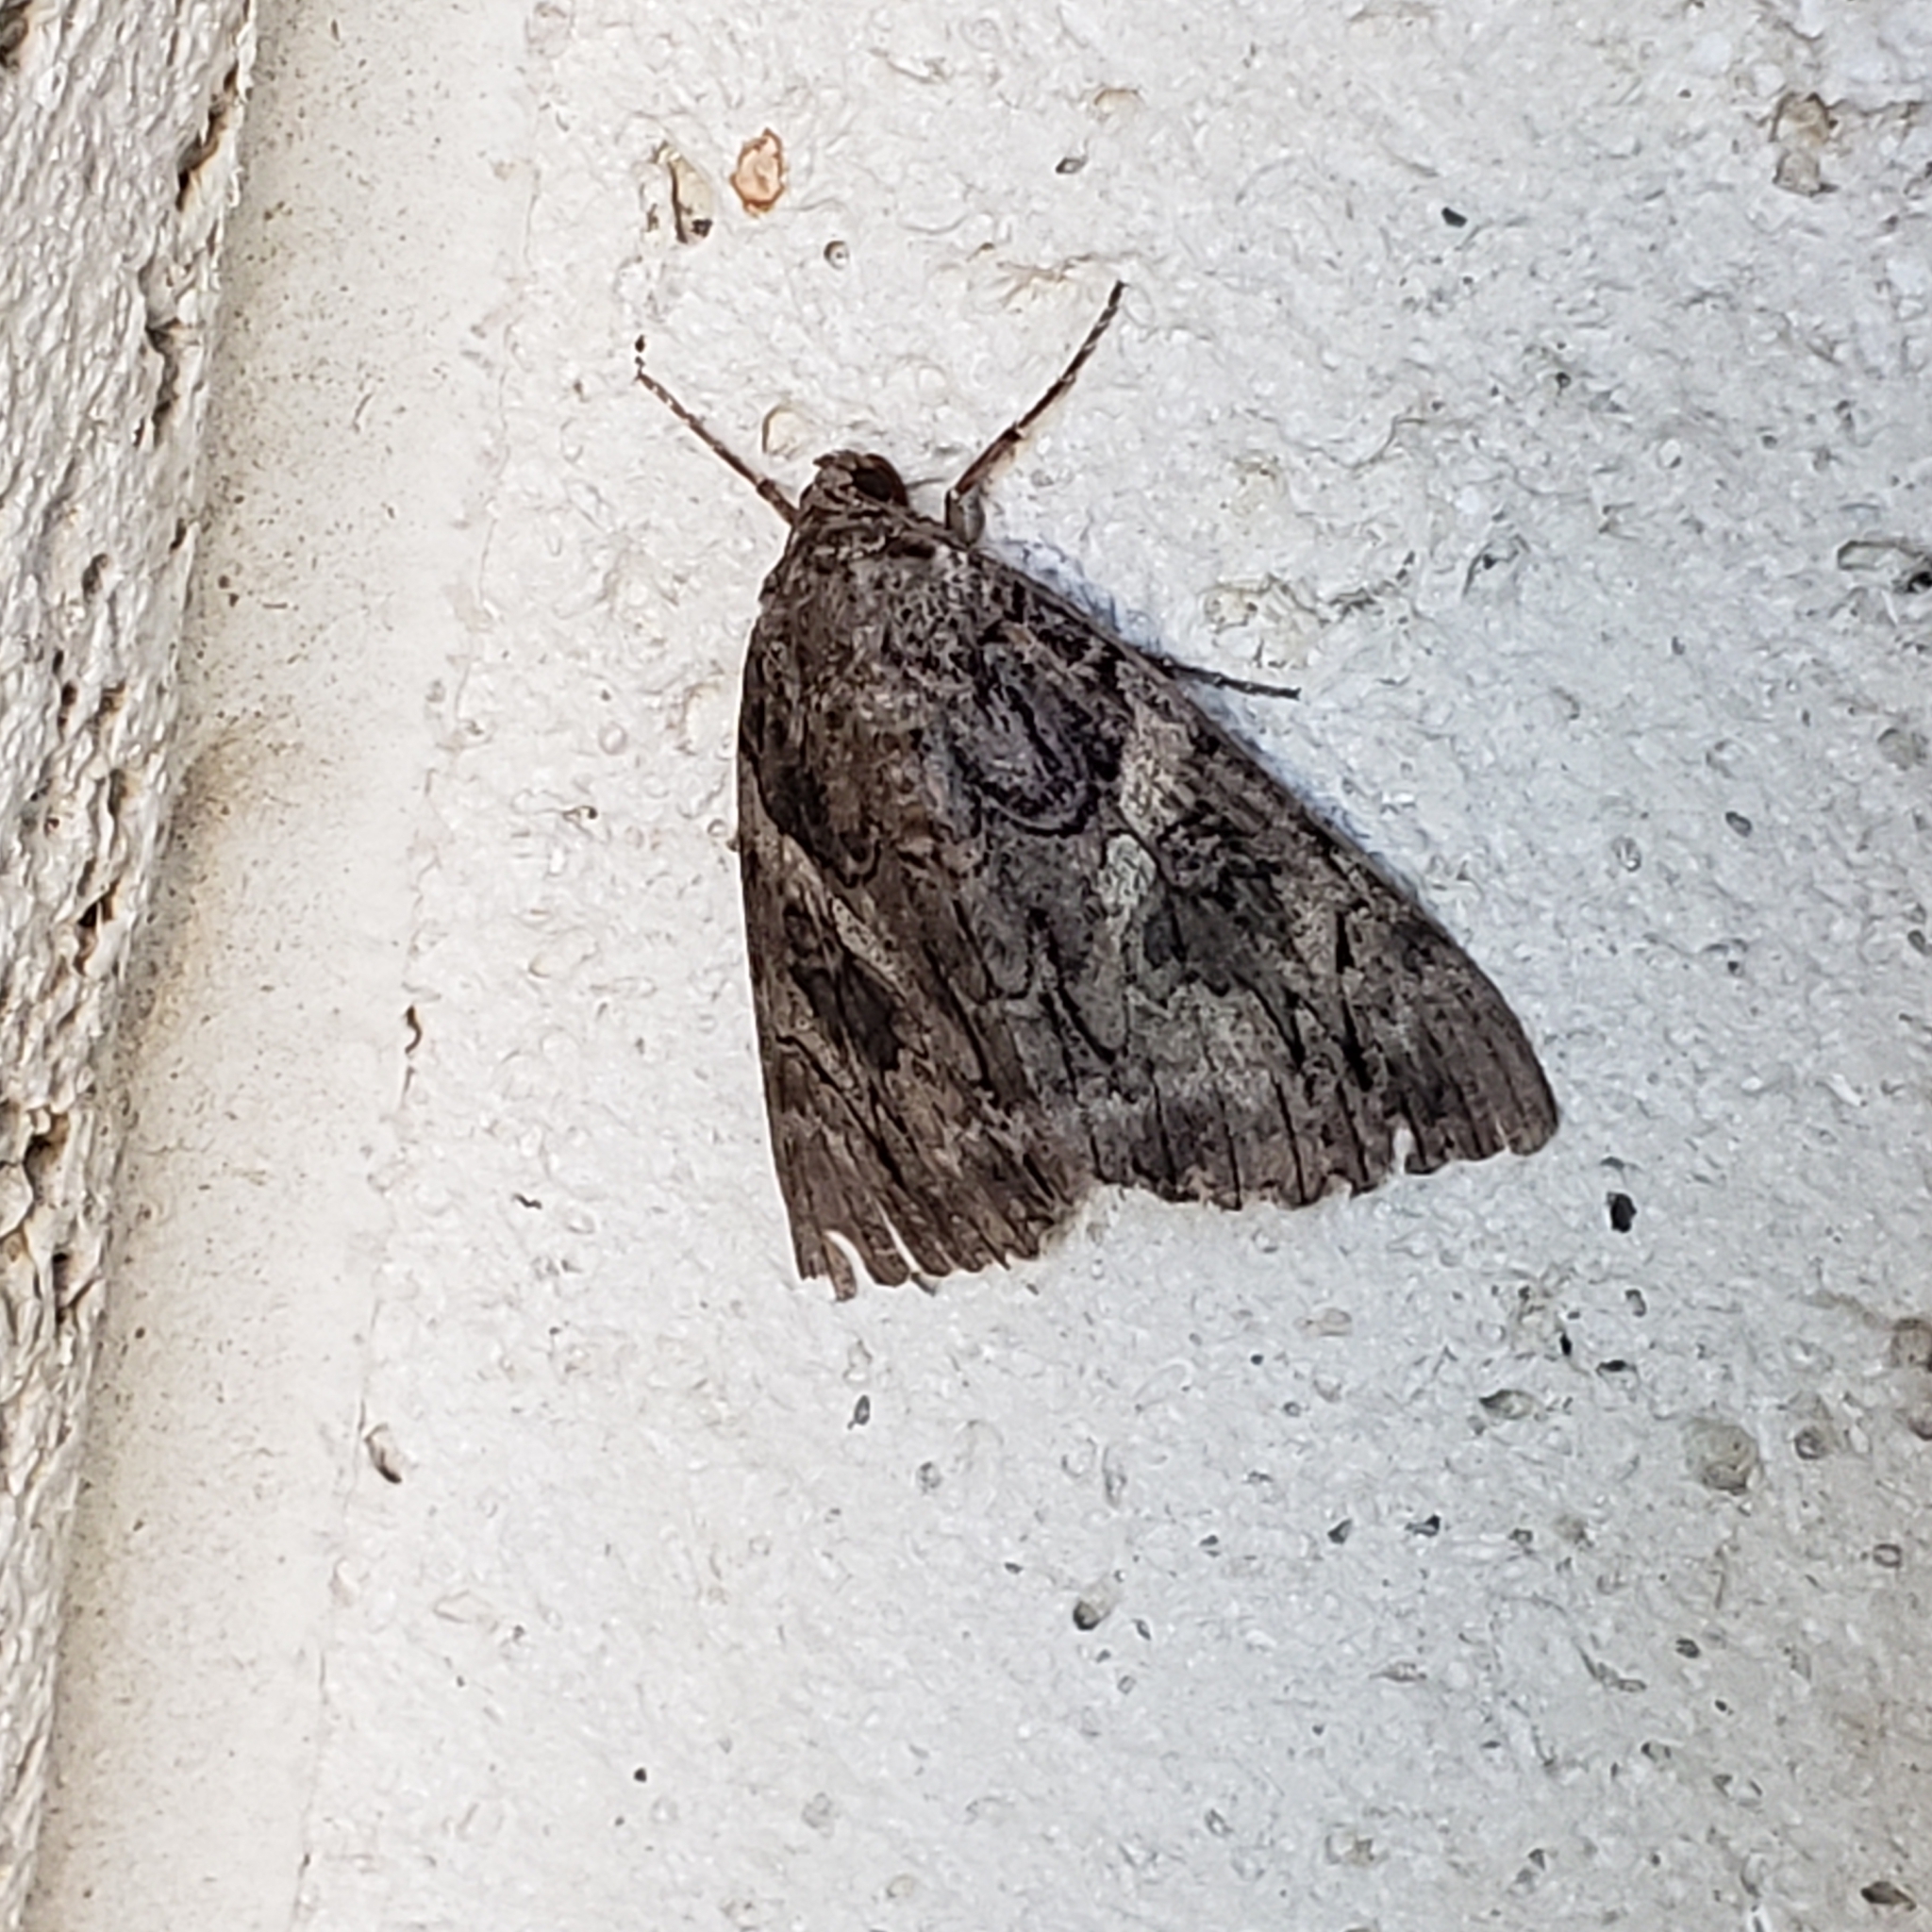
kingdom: Animalia
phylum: Arthropoda
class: Insecta
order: Lepidoptera
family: Erebidae
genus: Catocala
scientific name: Catocala piatrix
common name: The penitent underwing
